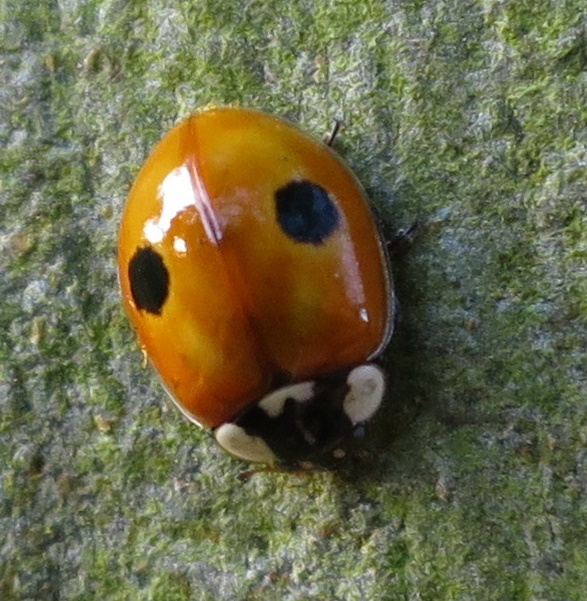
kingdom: Animalia
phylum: Arthropoda
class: Insecta
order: Coleoptera
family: Coccinellidae
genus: Adalia
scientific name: Adalia bipunctata
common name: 2-spot ladybird
